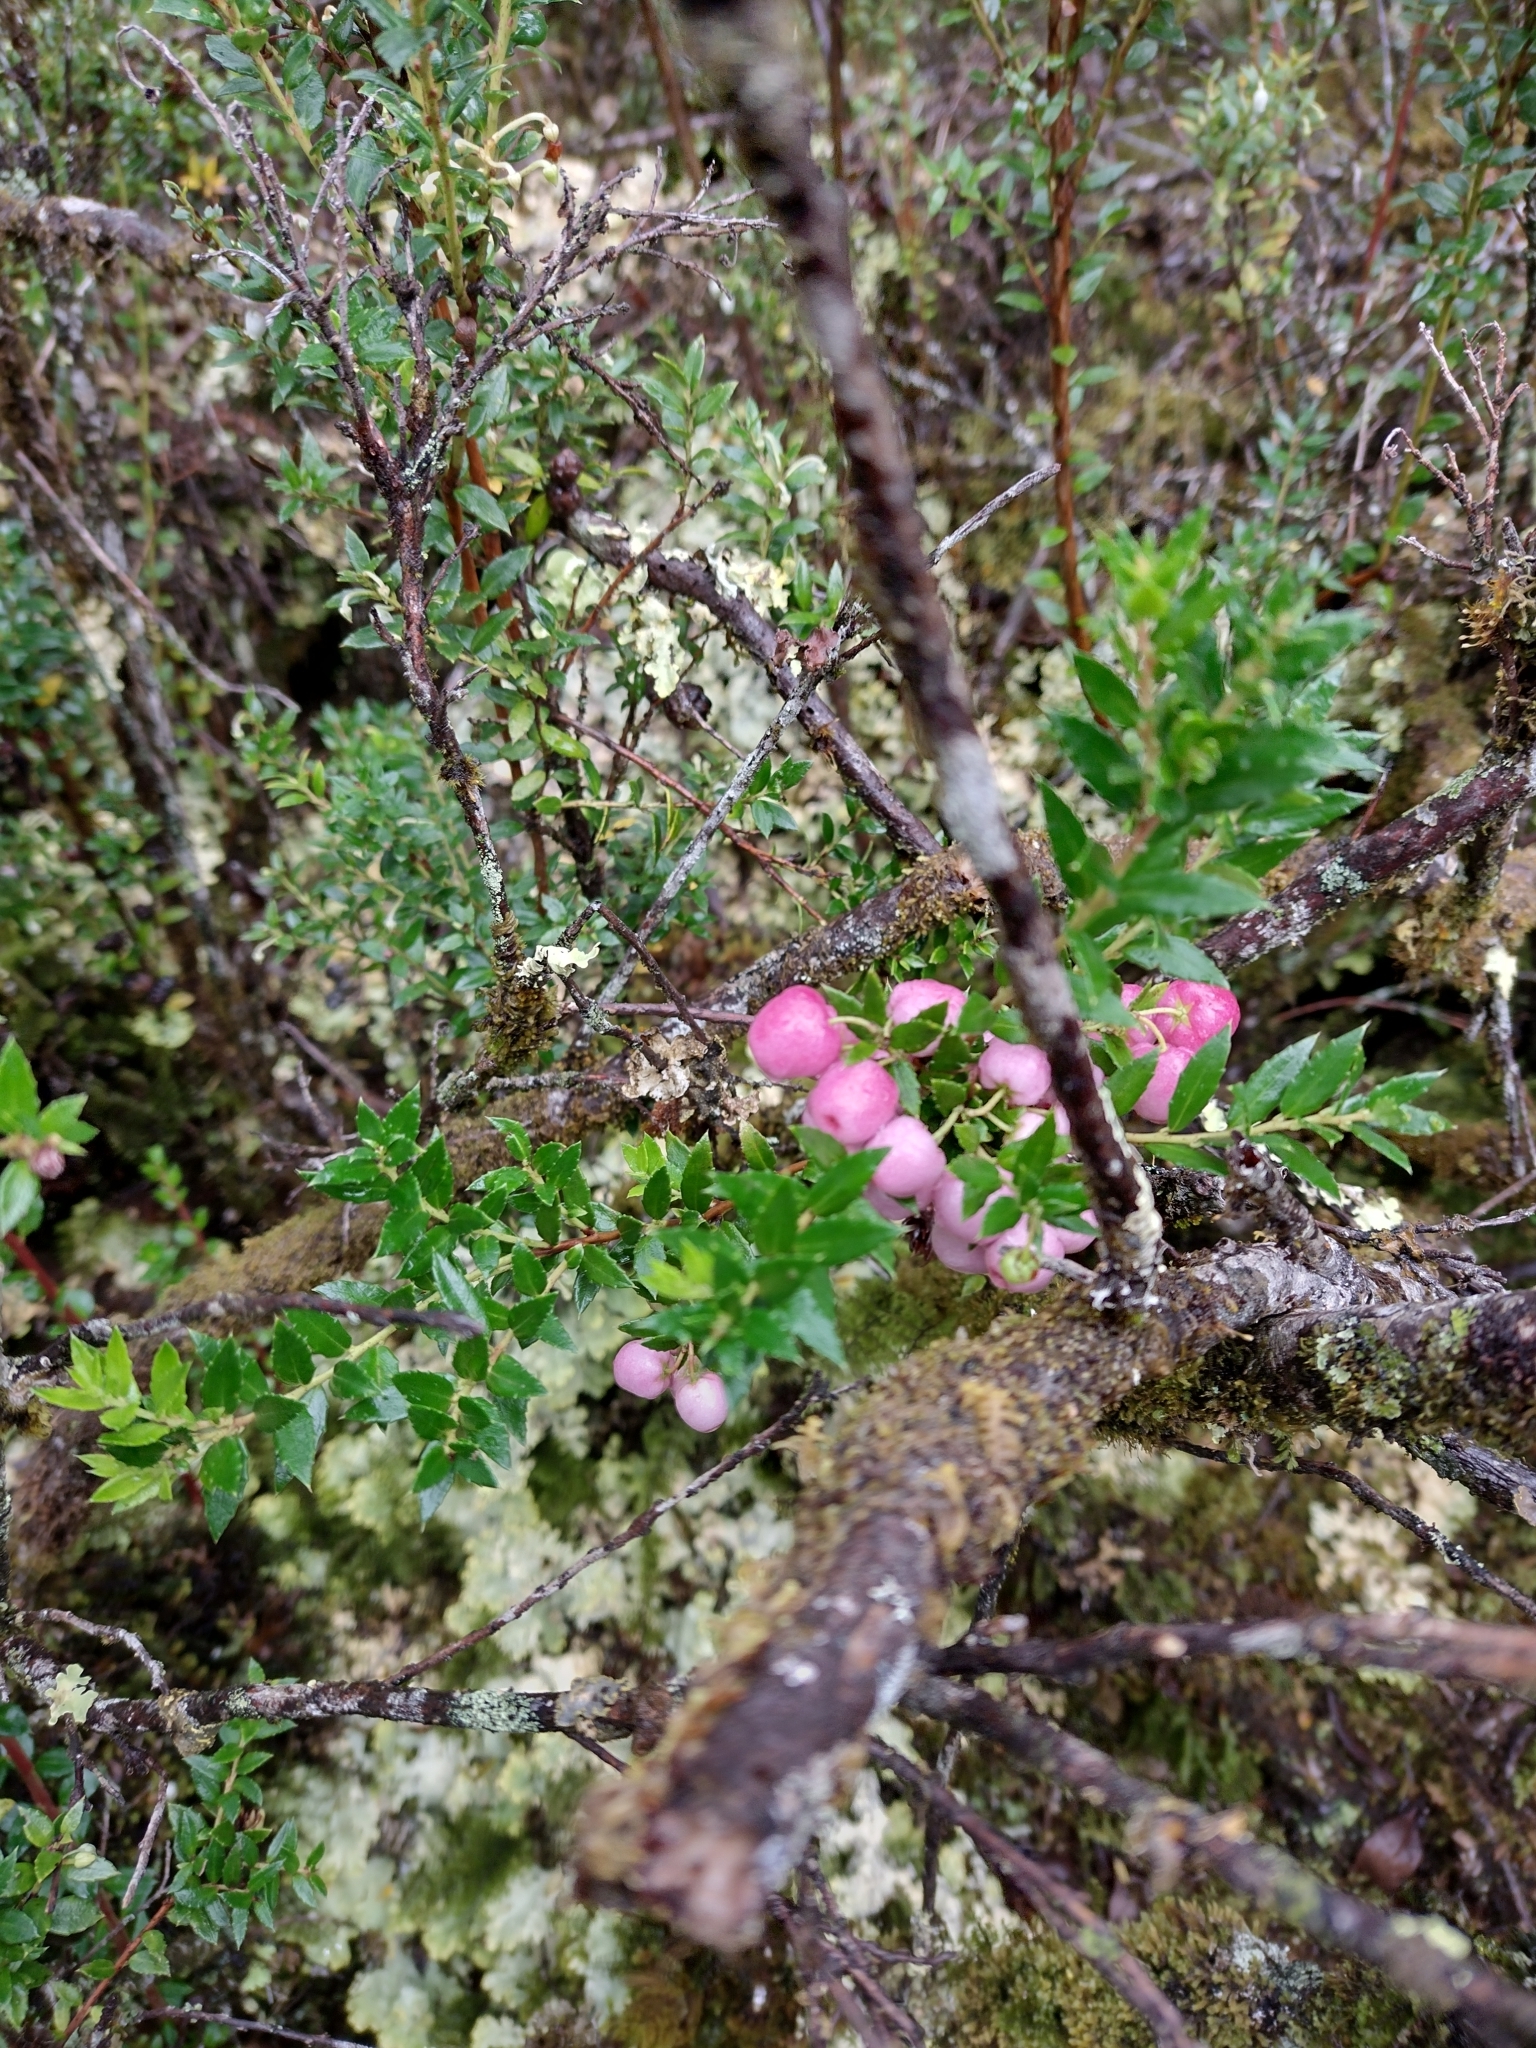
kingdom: Plantae
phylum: Tracheophyta
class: Magnoliopsida
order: Ericales
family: Ericaceae
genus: Gaultheria
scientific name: Gaultheria mucronata
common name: Prickly heath
